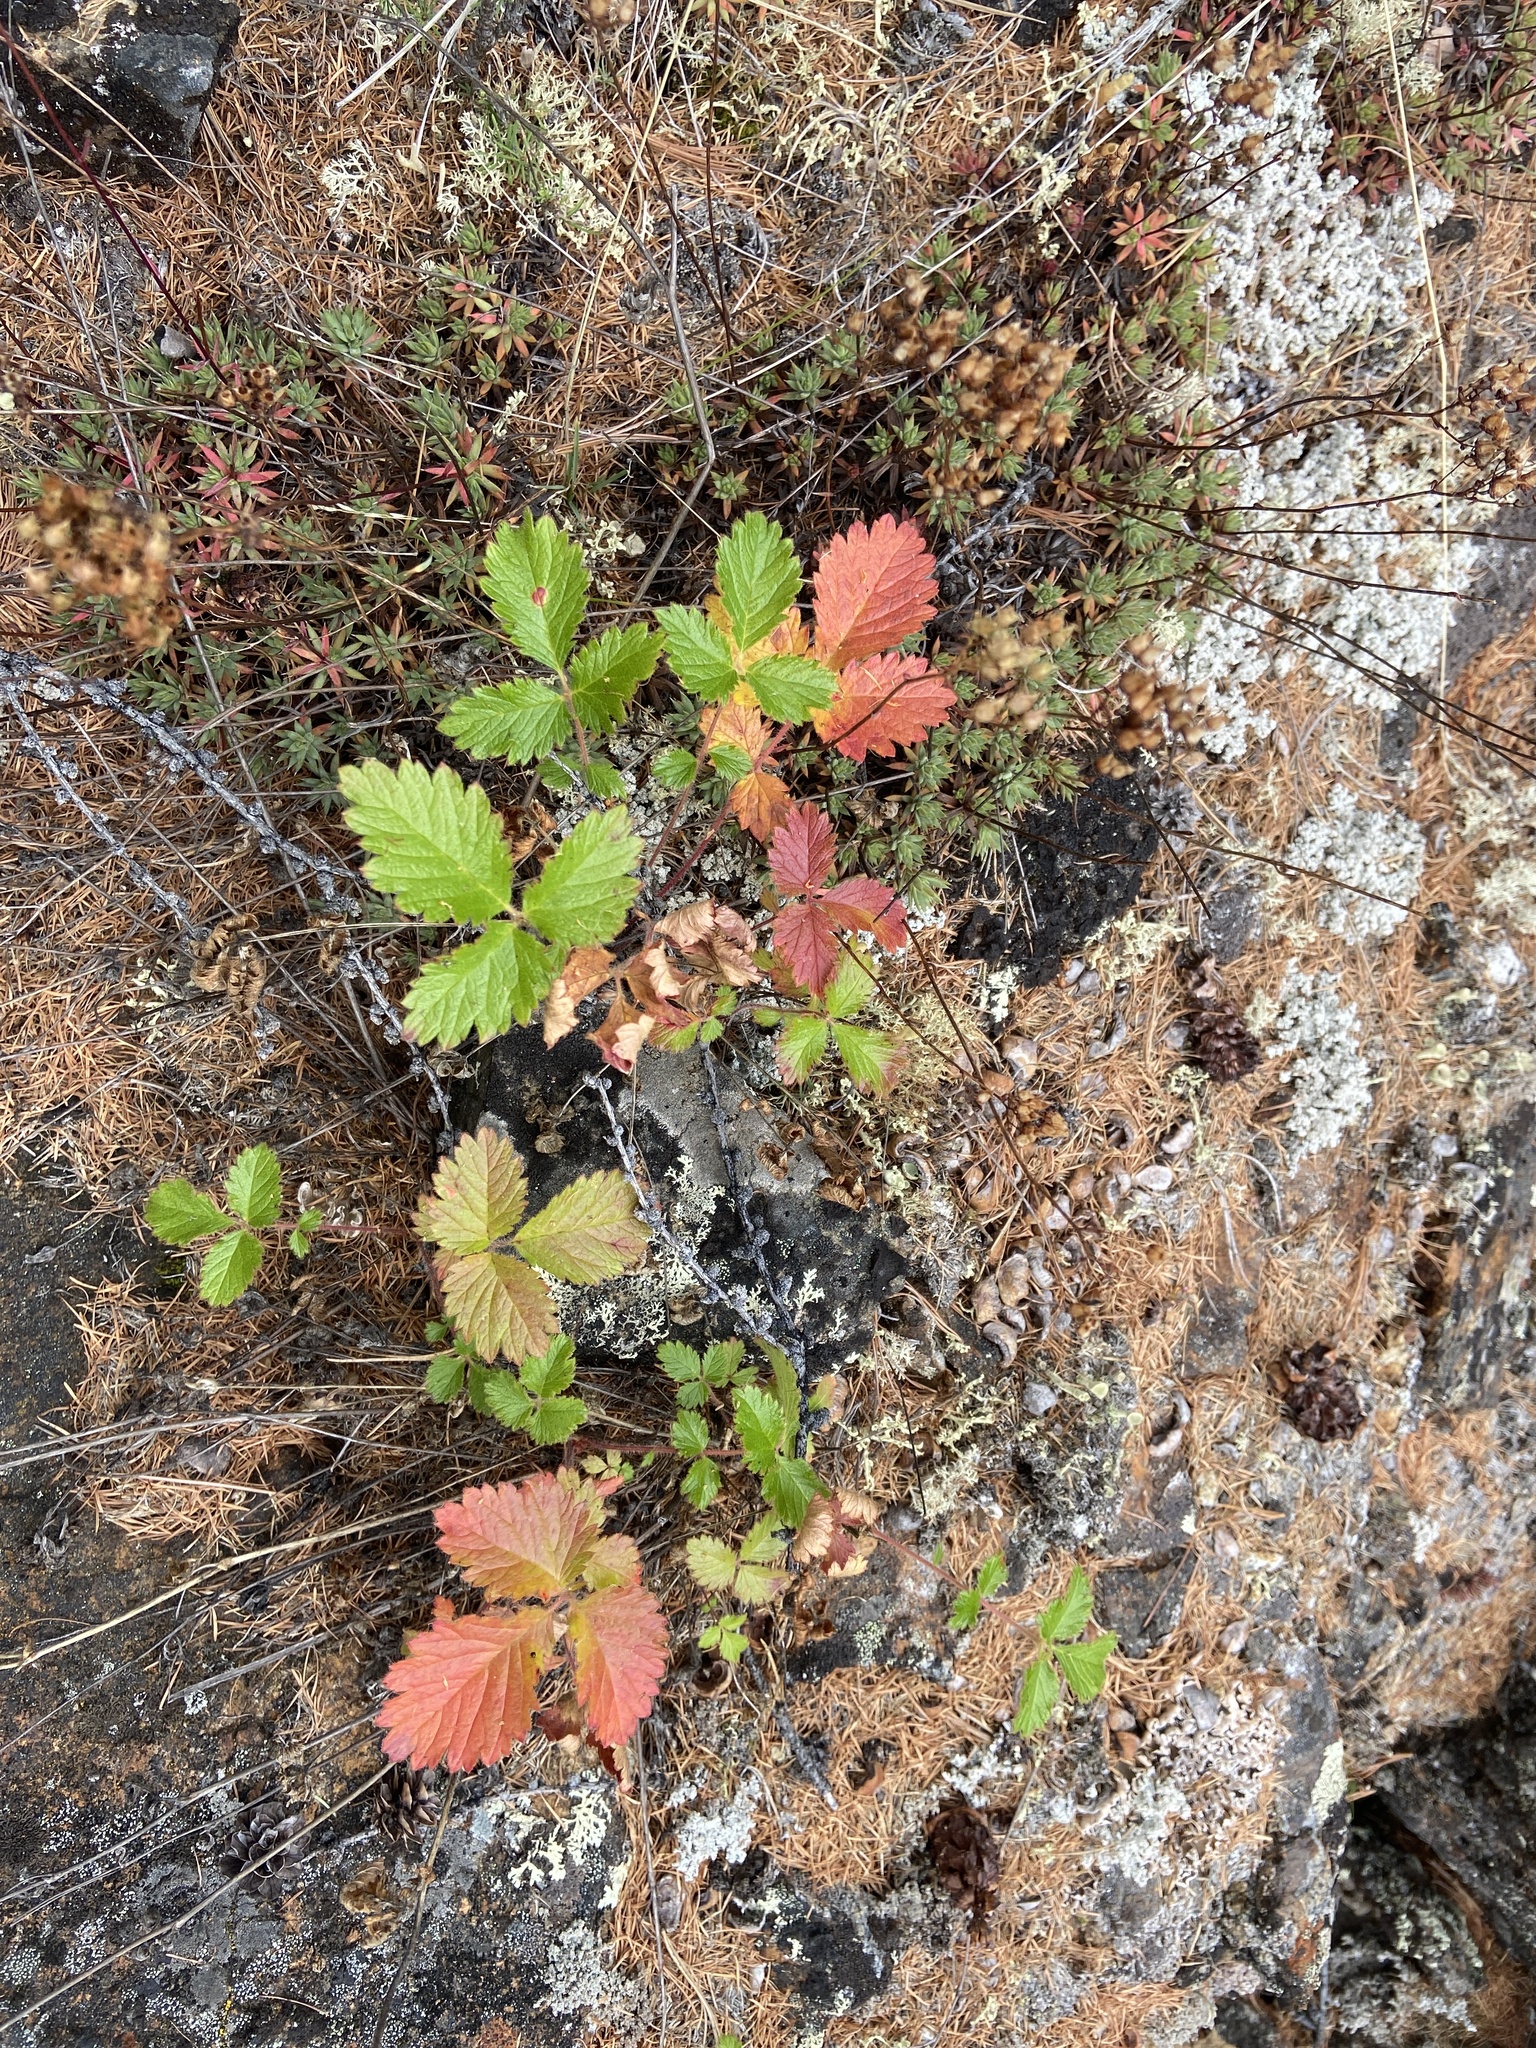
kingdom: Plantae
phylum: Tracheophyta
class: Magnoliopsida
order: Rosales
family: Rosaceae
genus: Drymocallis
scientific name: Drymocallis inquinans
